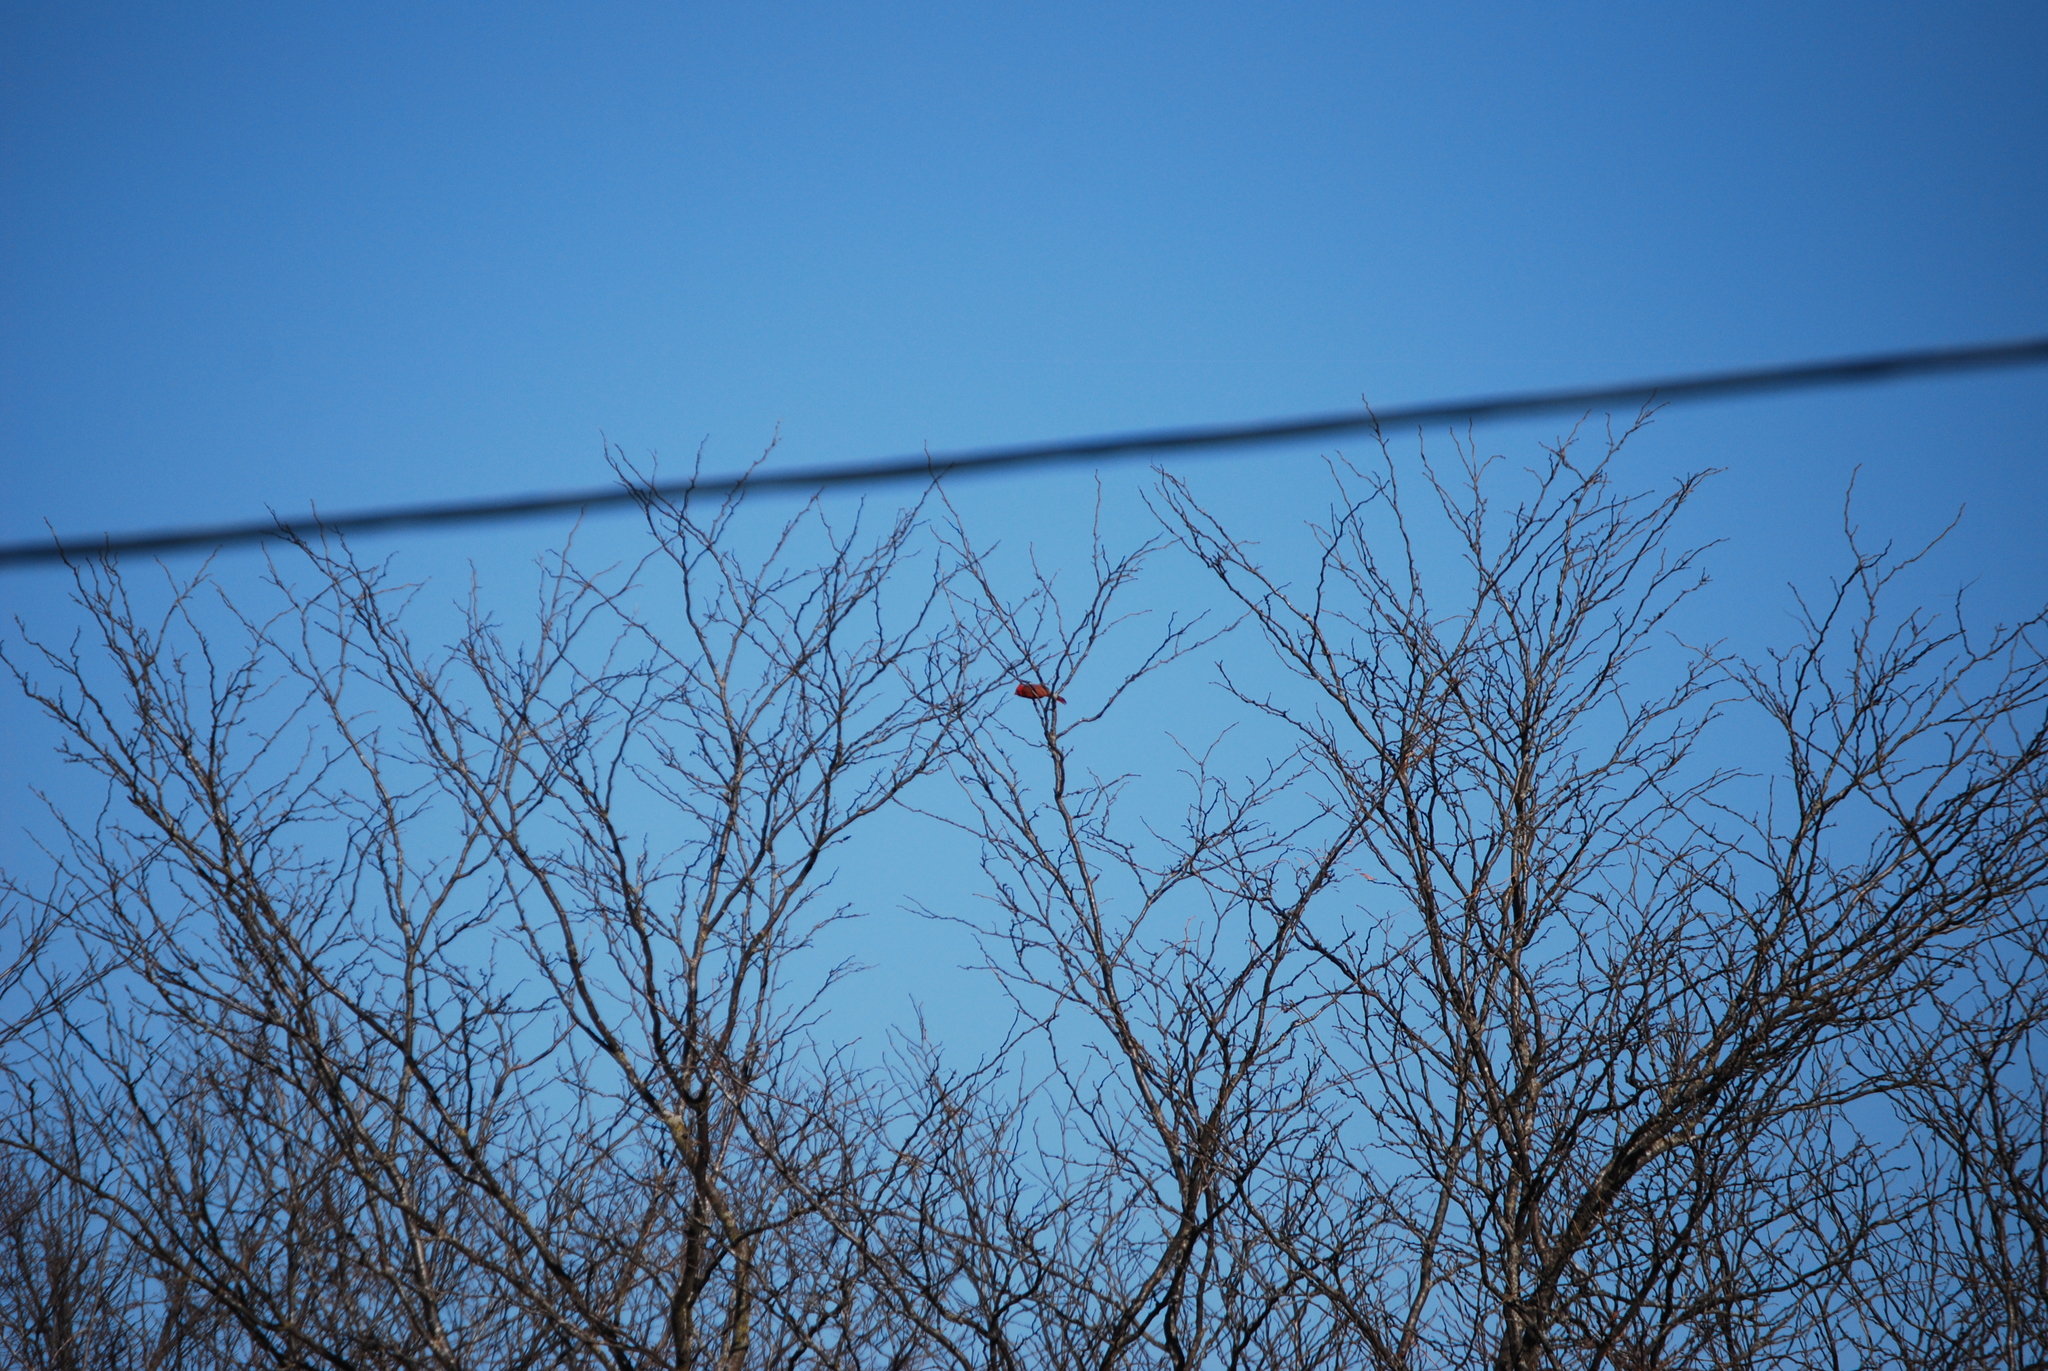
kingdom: Animalia
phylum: Chordata
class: Aves
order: Passeriformes
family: Cardinalidae
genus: Cardinalis
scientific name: Cardinalis cardinalis
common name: Northern cardinal
